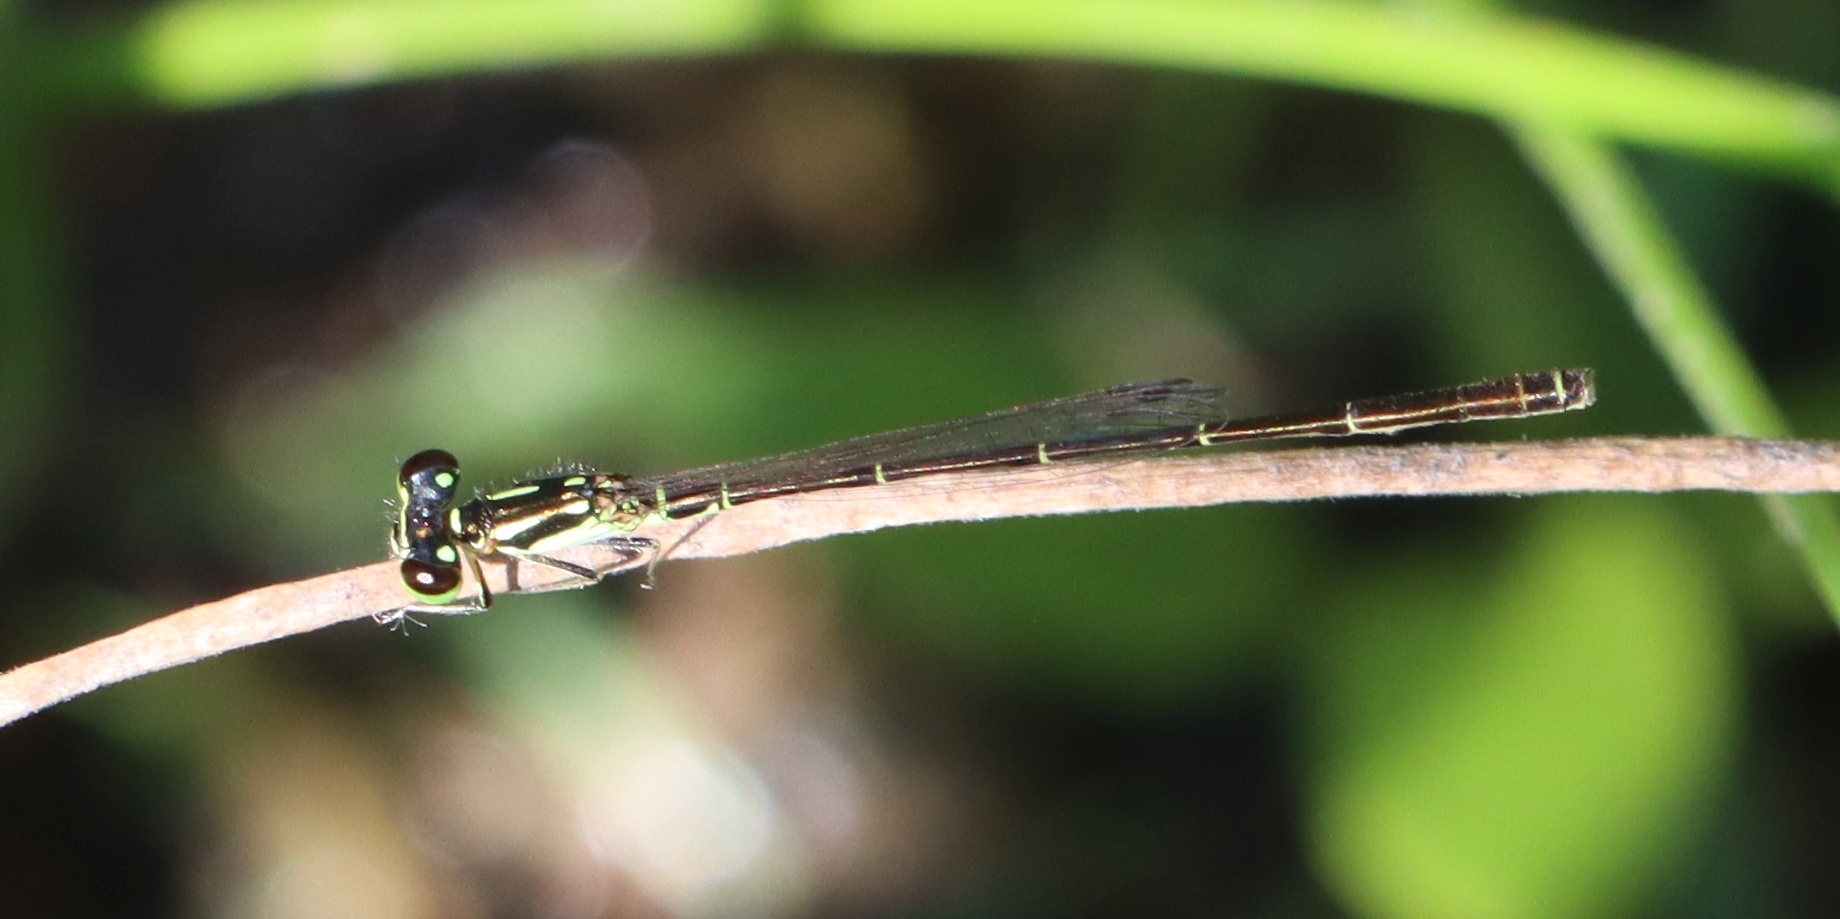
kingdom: Animalia
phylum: Arthropoda
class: Insecta
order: Odonata
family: Coenagrionidae
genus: Ischnura
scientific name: Ischnura posita
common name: Fragile forktail
